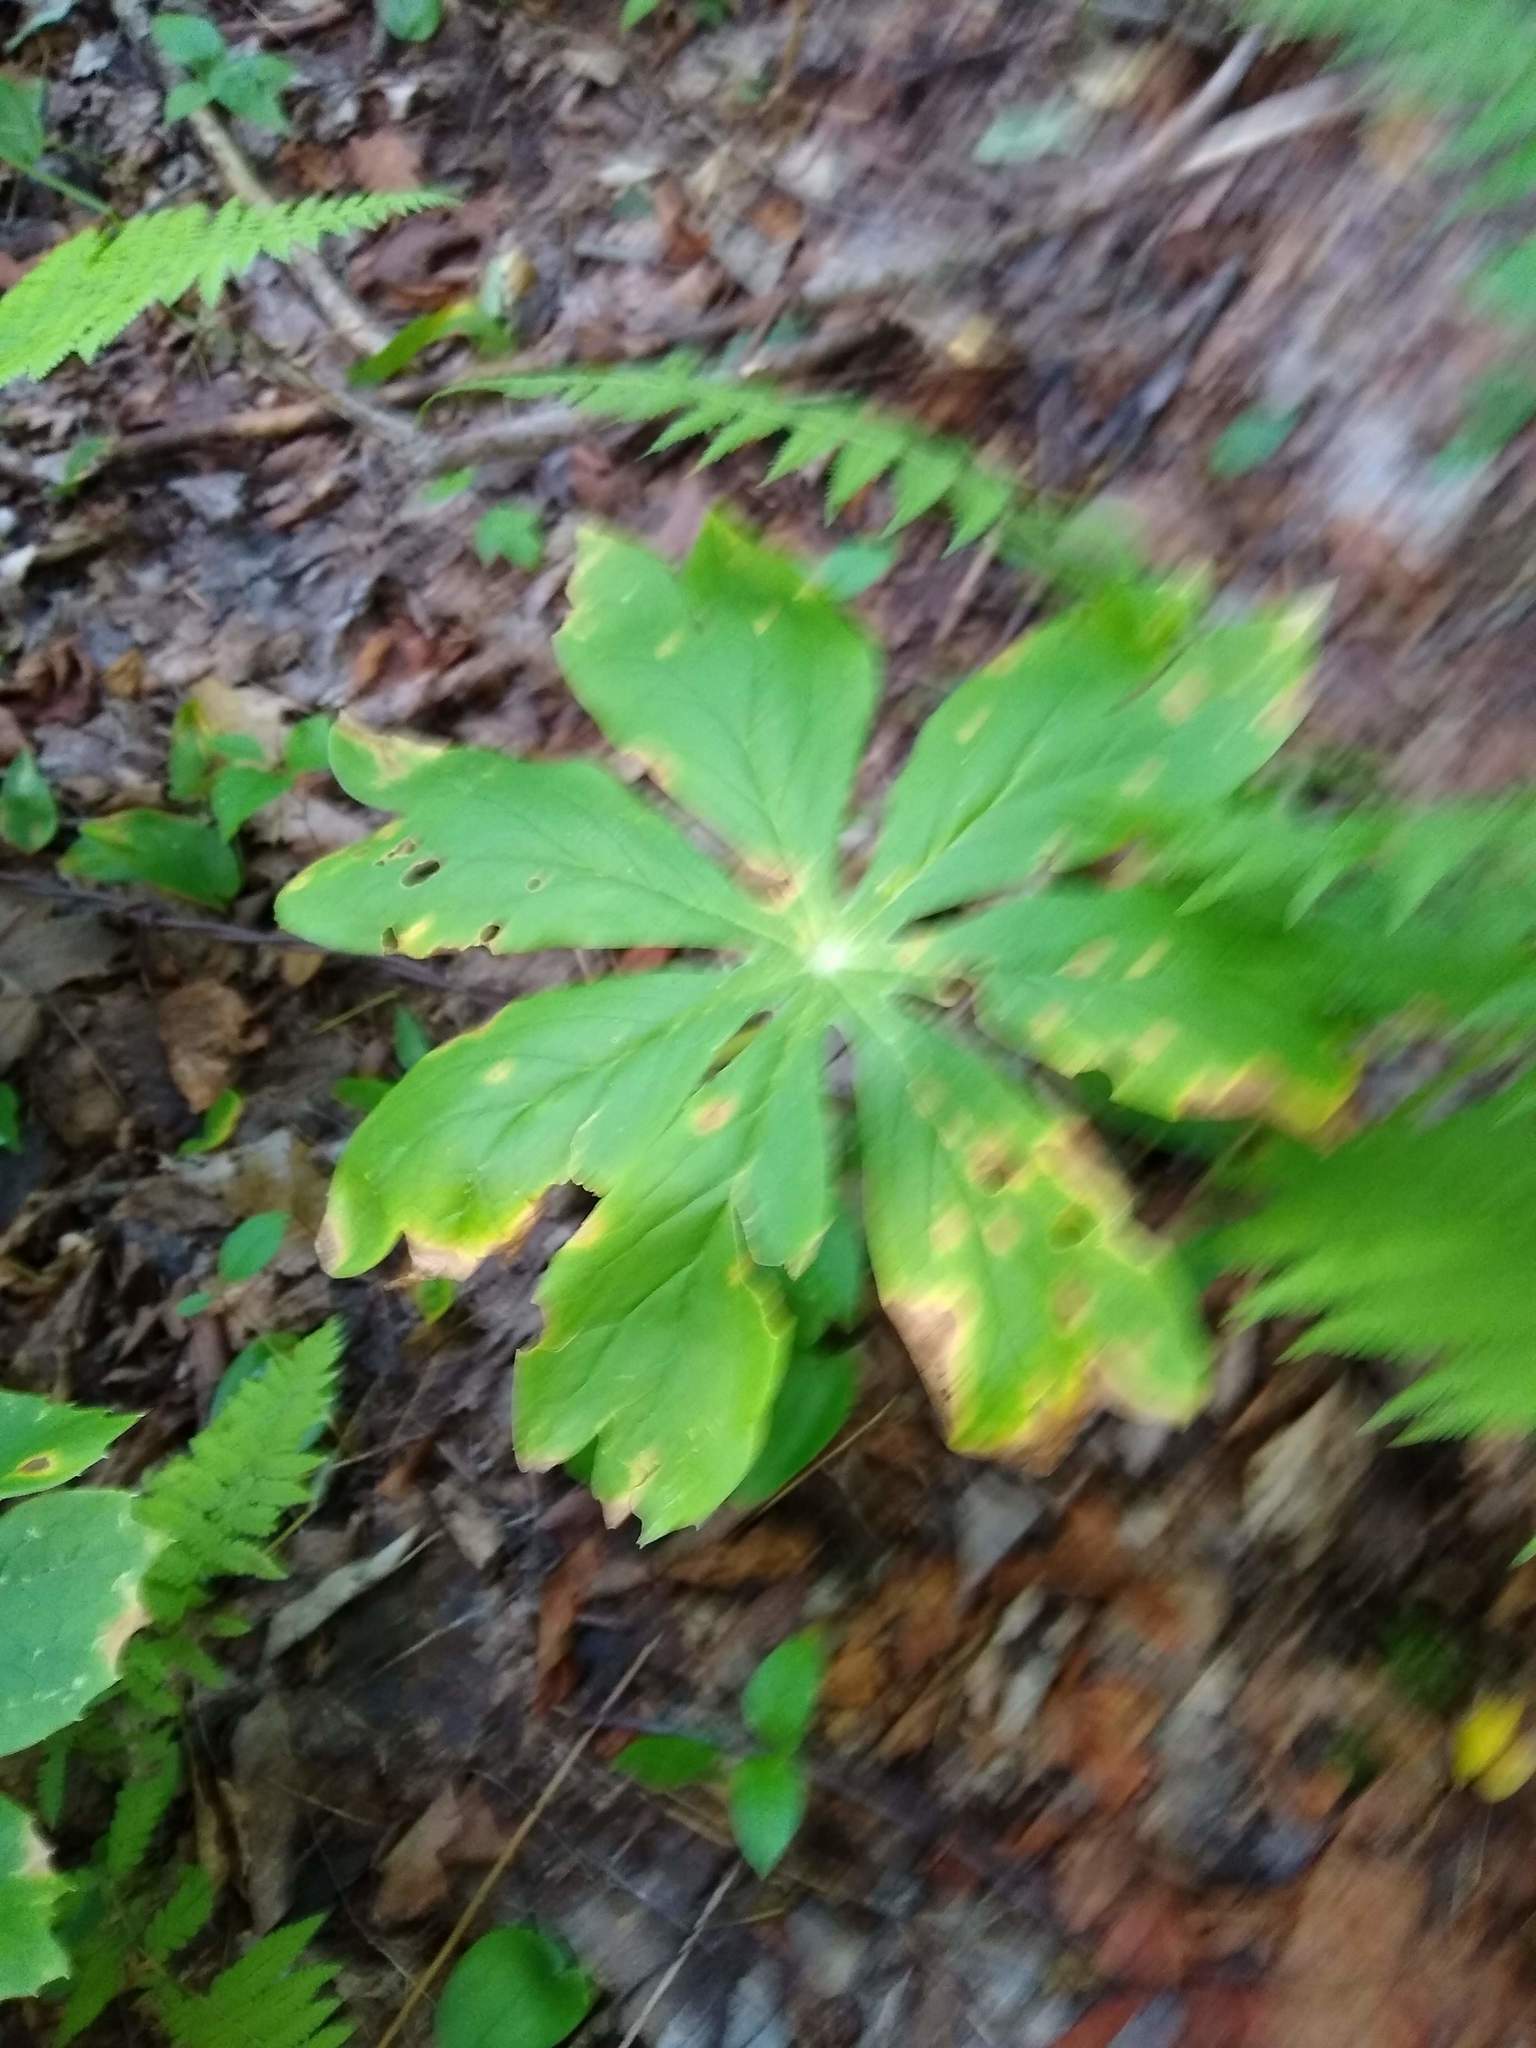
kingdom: Plantae
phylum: Tracheophyta
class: Magnoliopsida
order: Ranunculales
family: Berberidaceae
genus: Podophyllum
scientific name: Podophyllum peltatum
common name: Wild mandrake
